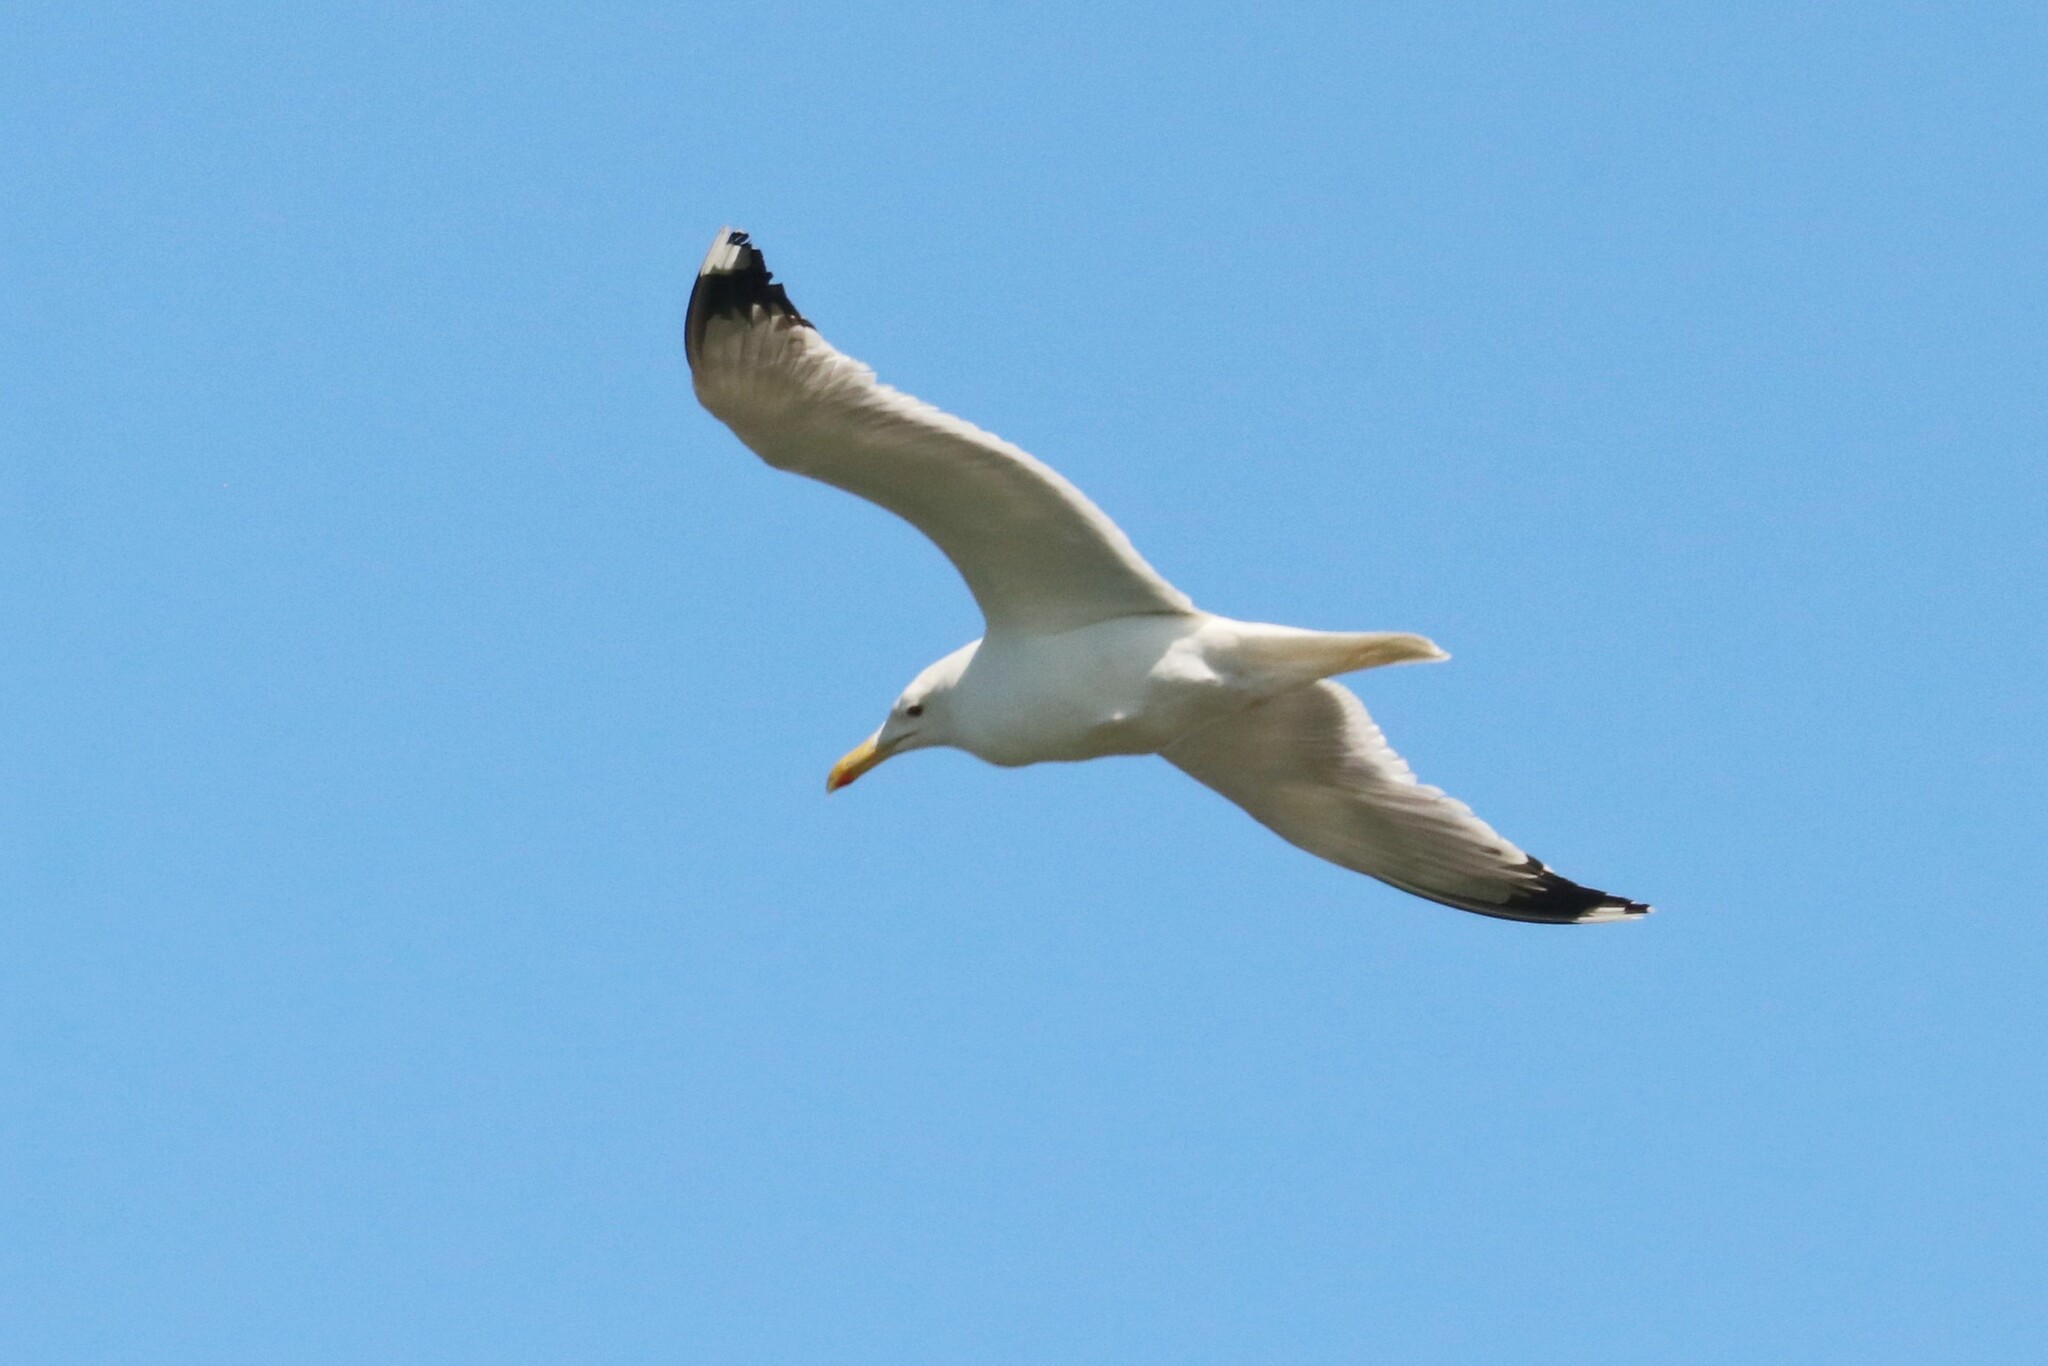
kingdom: Animalia
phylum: Chordata
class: Aves
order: Charadriiformes
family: Laridae
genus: Larus
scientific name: Larus cachinnans
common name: Caspian gull
